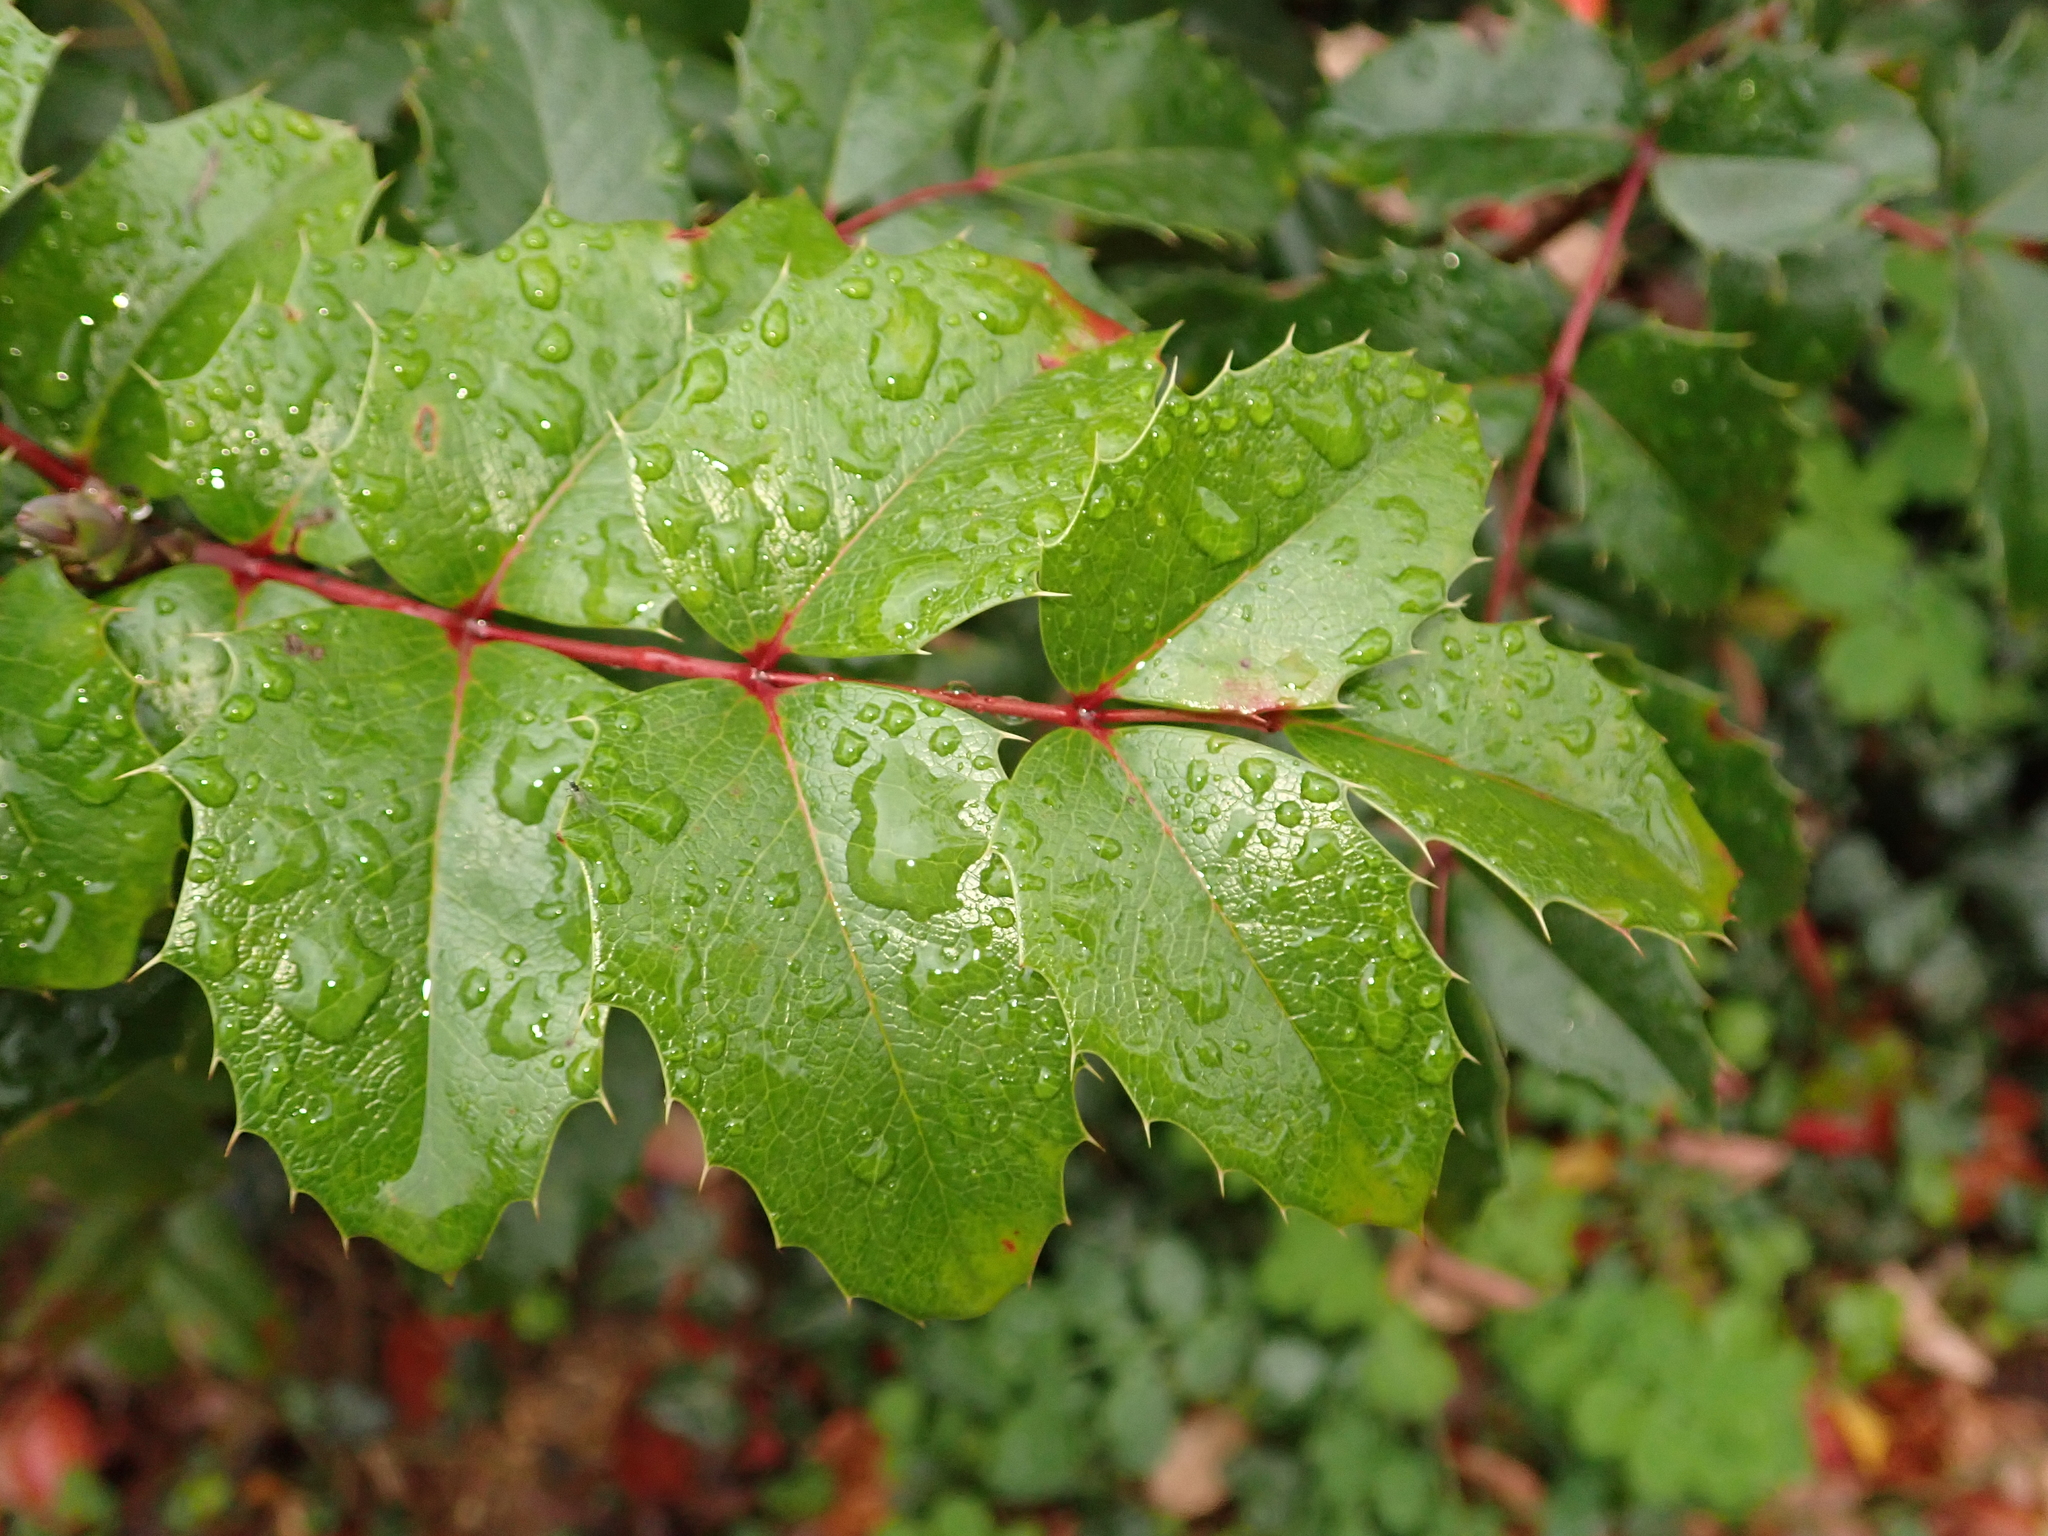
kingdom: Plantae
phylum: Tracheophyta
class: Magnoliopsida
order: Ranunculales
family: Berberidaceae
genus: Mahonia
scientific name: Mahonia aquifolium
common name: Oregon-grape
